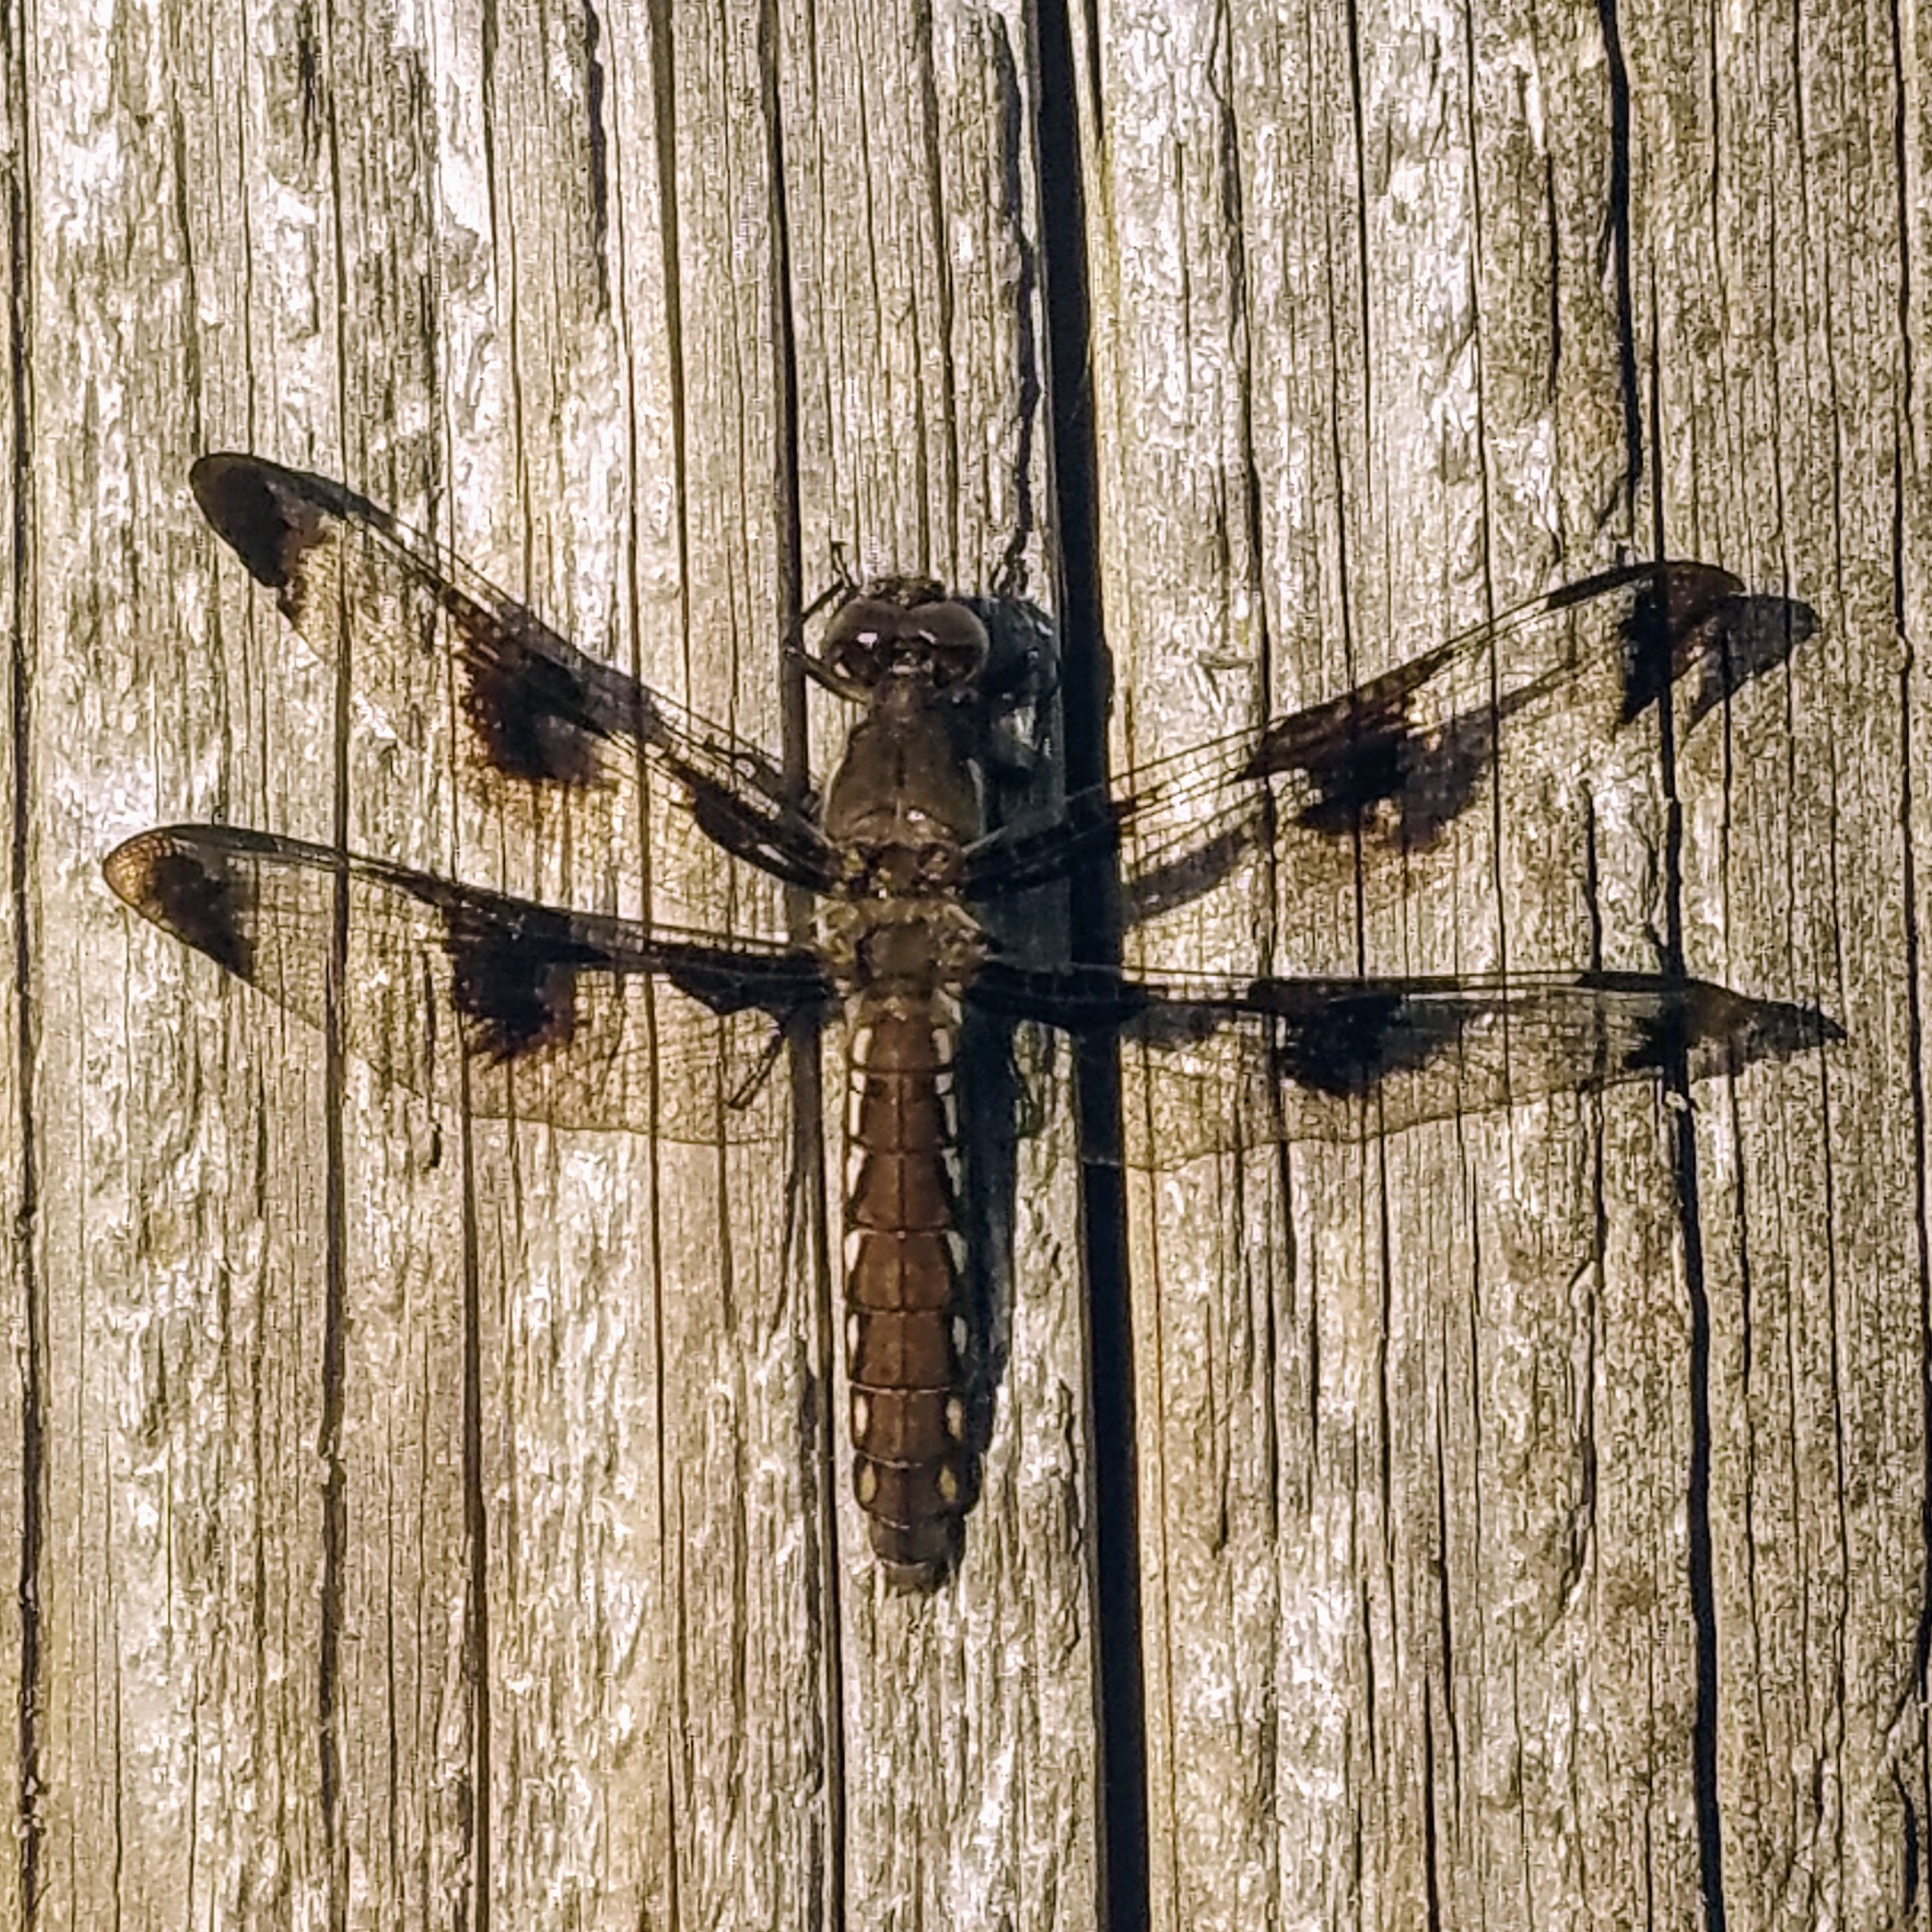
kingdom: Animalia
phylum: Arthropoda
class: Insecta
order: Odonata
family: Libellulidae
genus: Plathemis
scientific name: Plathemis lydia
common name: Common whitetail
